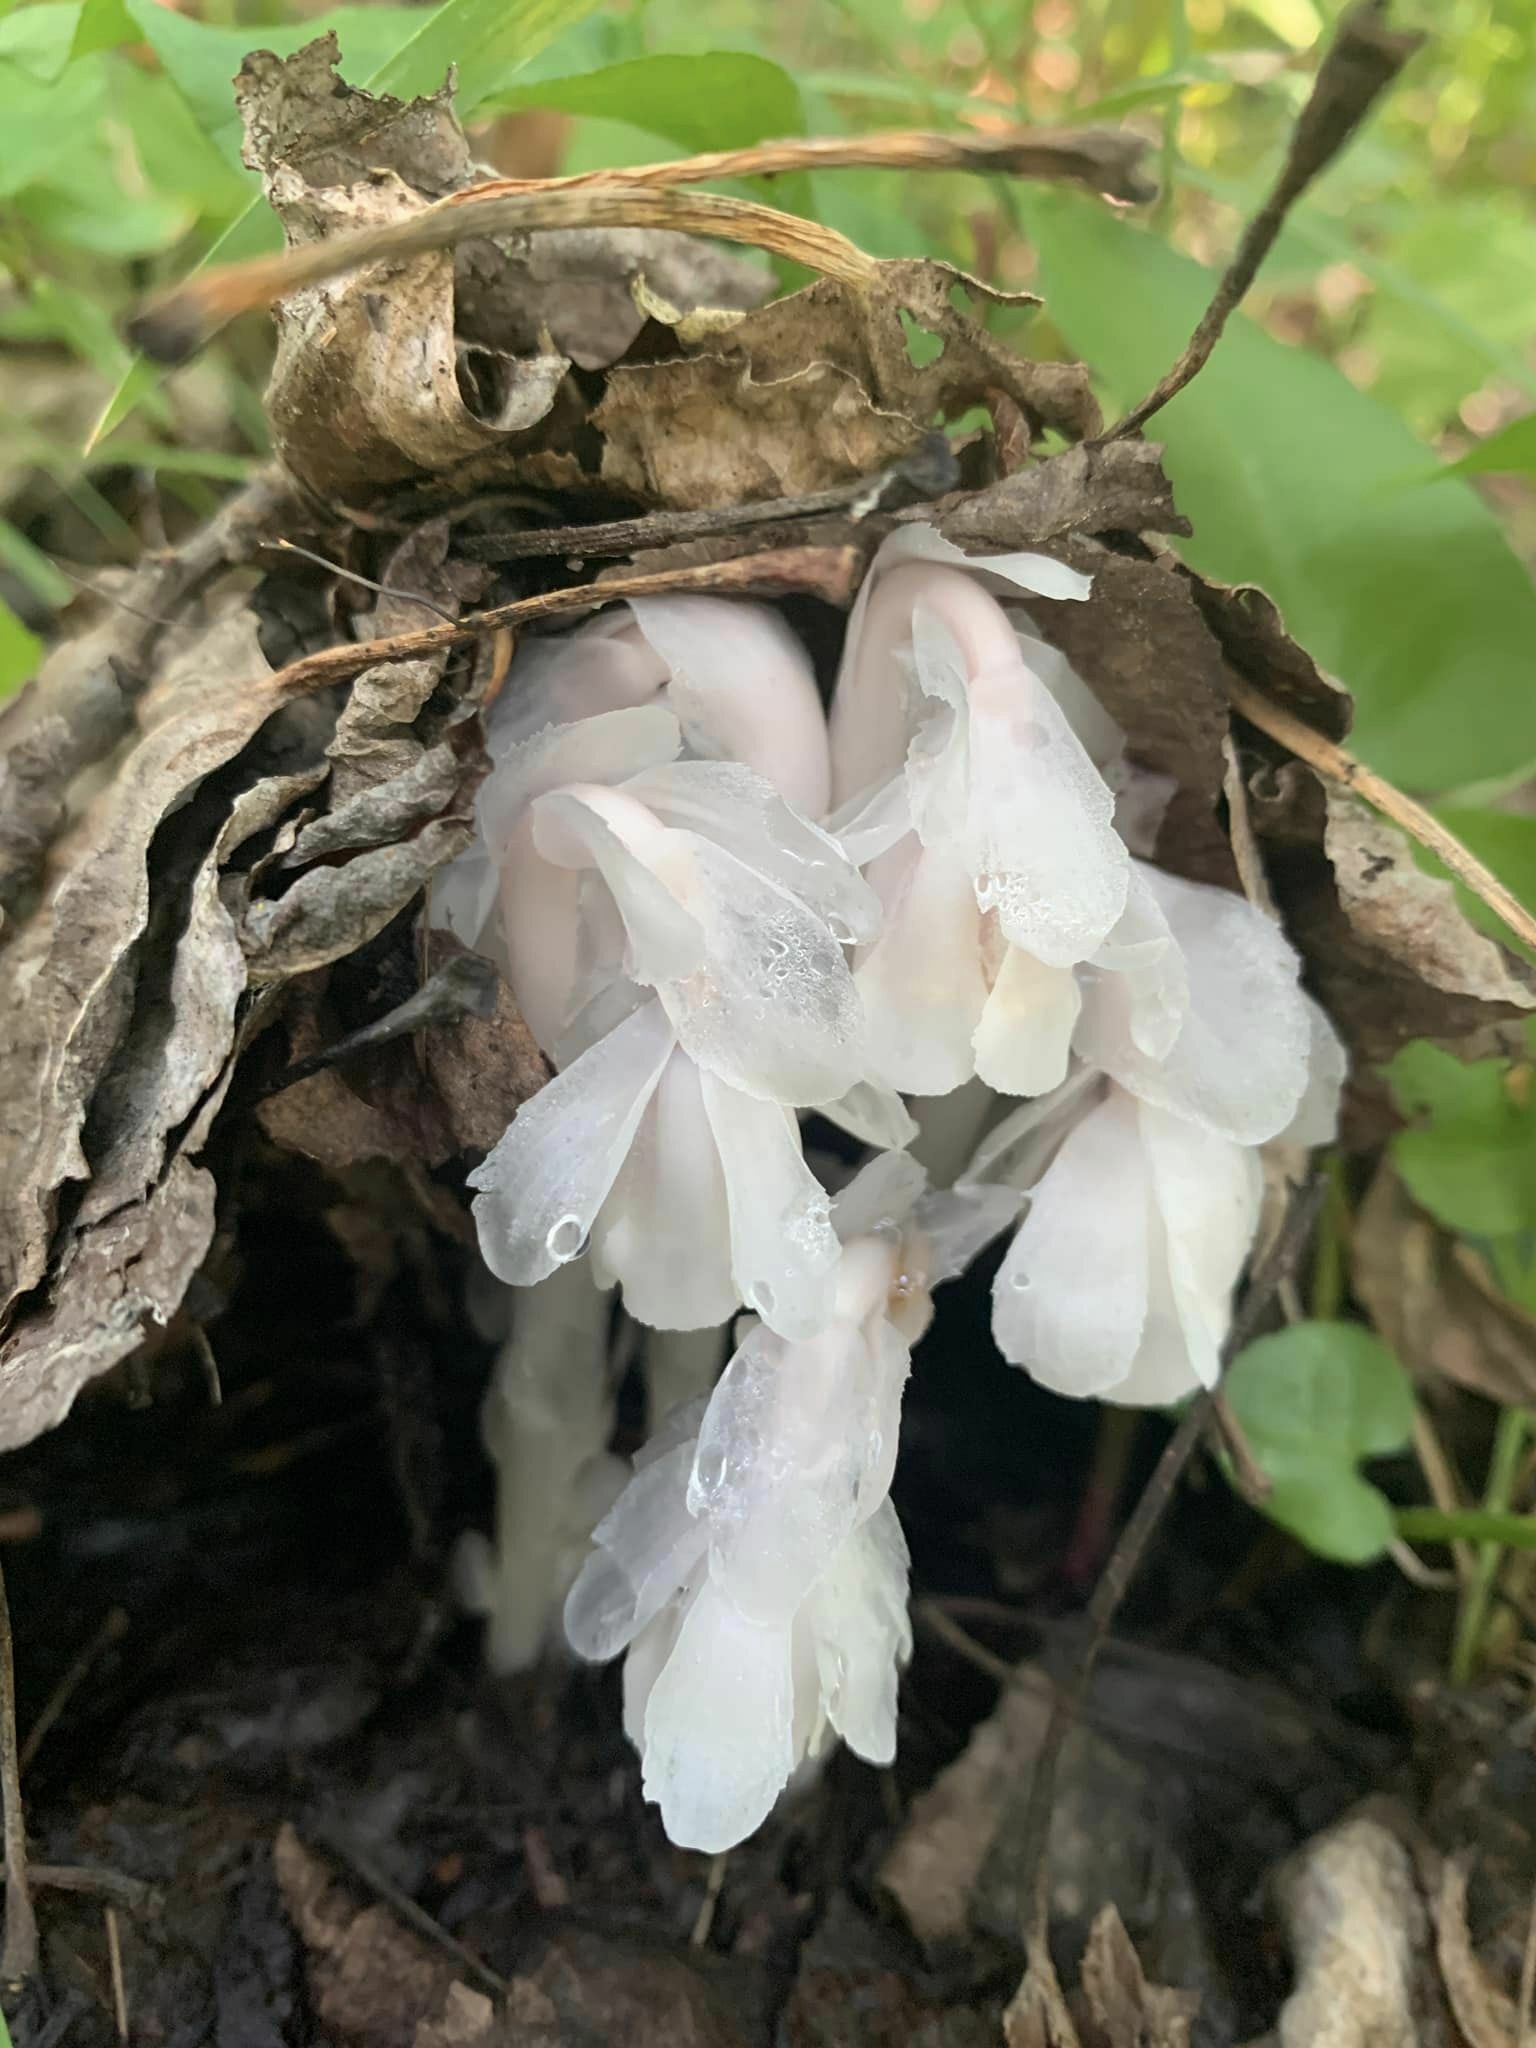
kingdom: Plantae
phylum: Tracheophyta
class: Magnoliopsida
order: Ericales
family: Ericaceae
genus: Monotropa
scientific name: Monotropa uniflora
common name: Convulsion root
